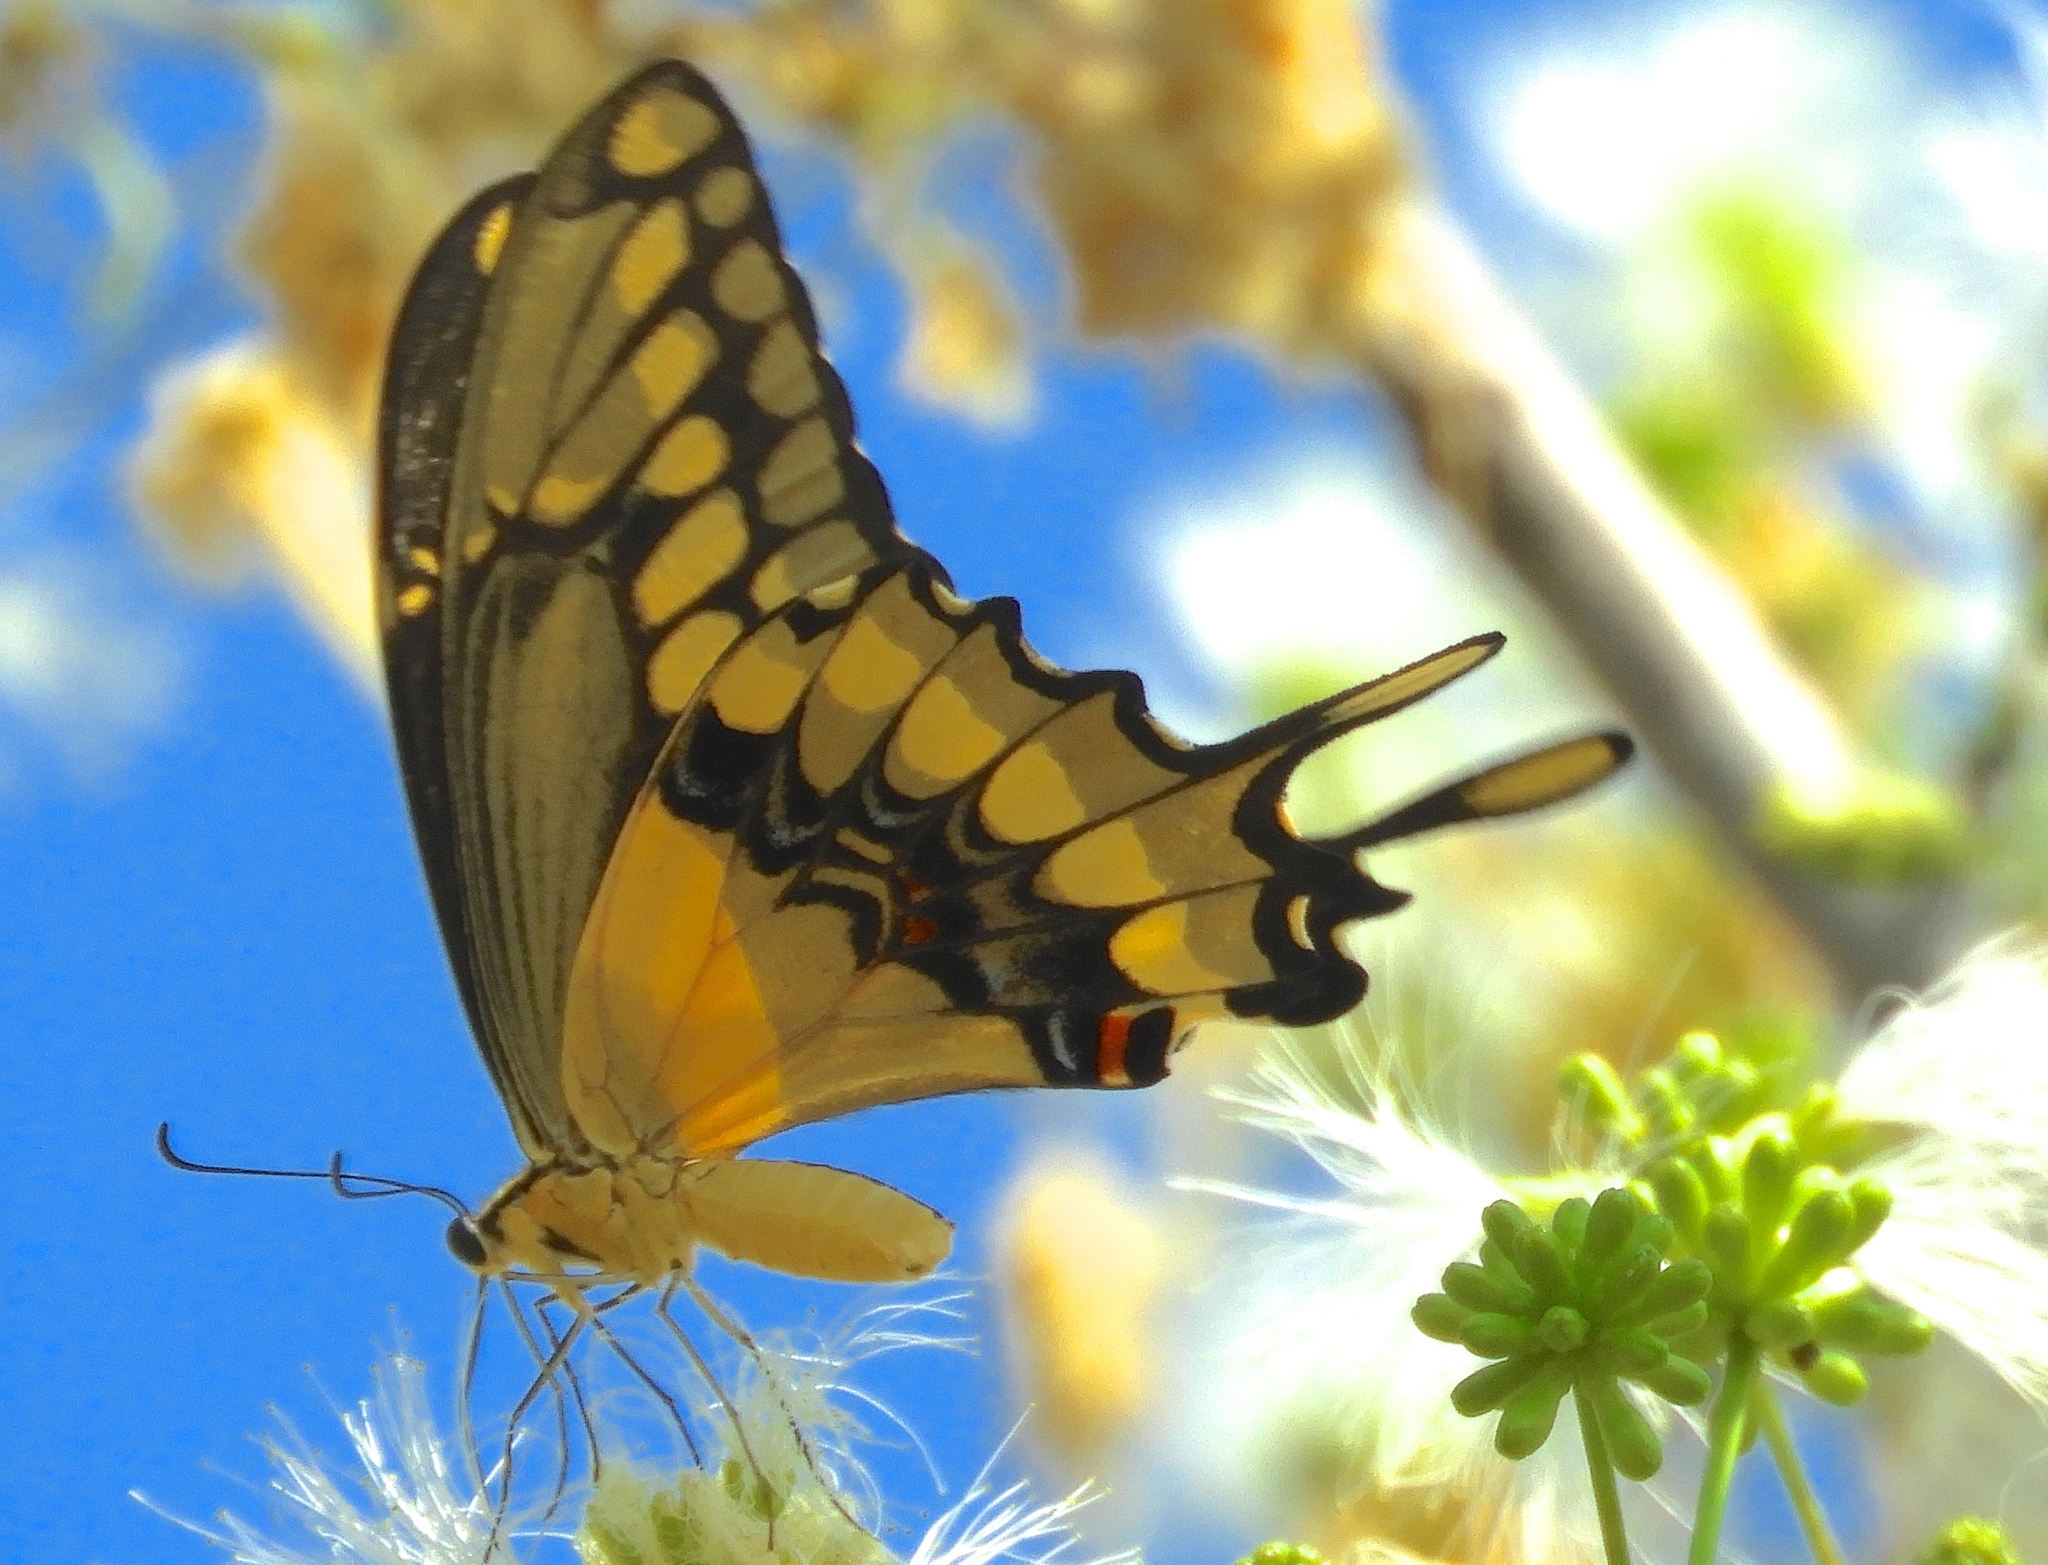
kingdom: Animalia
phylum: Arthropoda
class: Insecta
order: Lepidoptera
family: Papilionidae
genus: Papilio
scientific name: Papilio rumiko
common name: Western giant swallowtail
